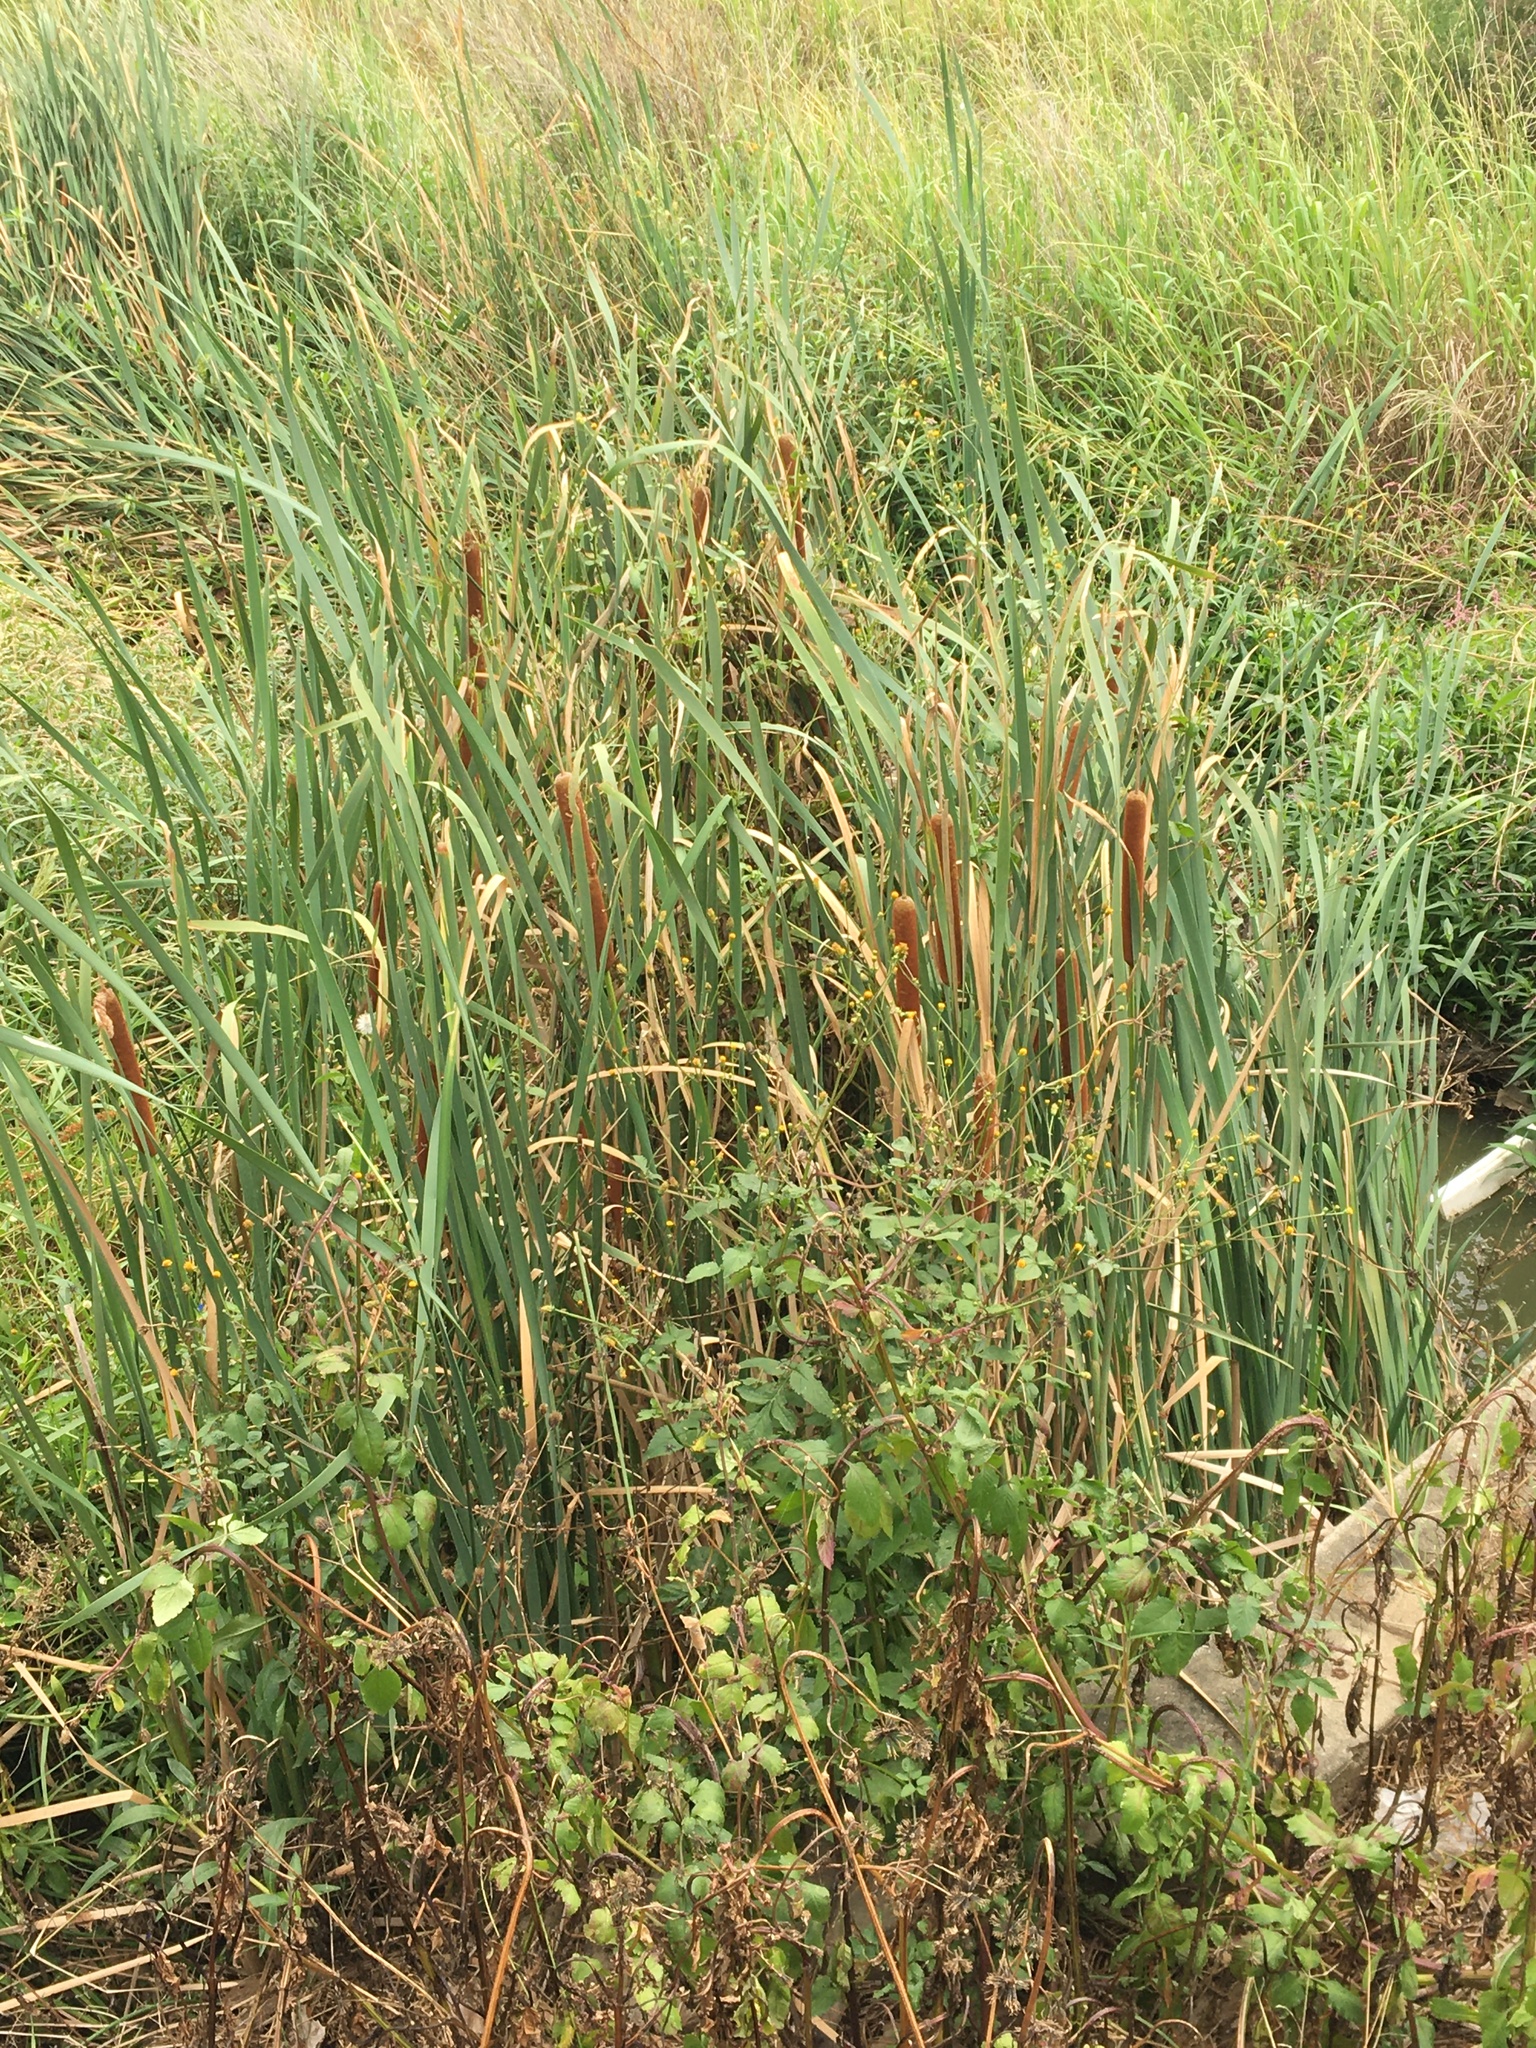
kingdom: Plantae
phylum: Tracheophyta
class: Liliopsida
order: Poales
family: Typhaceae
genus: Typha
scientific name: Typha orientalis
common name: Bullrush
